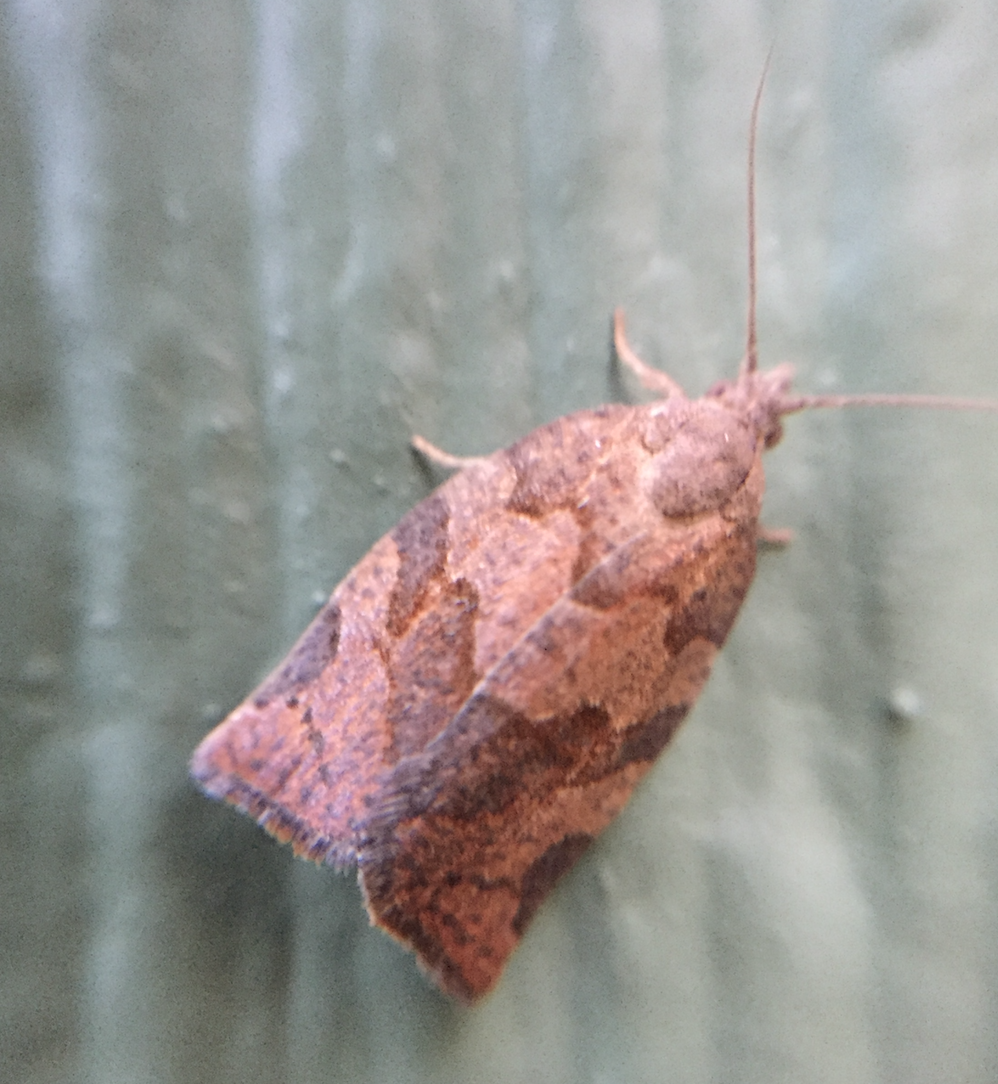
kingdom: Animalia
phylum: Arthropoda
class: Insecta
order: Lepidoptera
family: Tortricidae
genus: Pandemis
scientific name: Pandemis canadana
